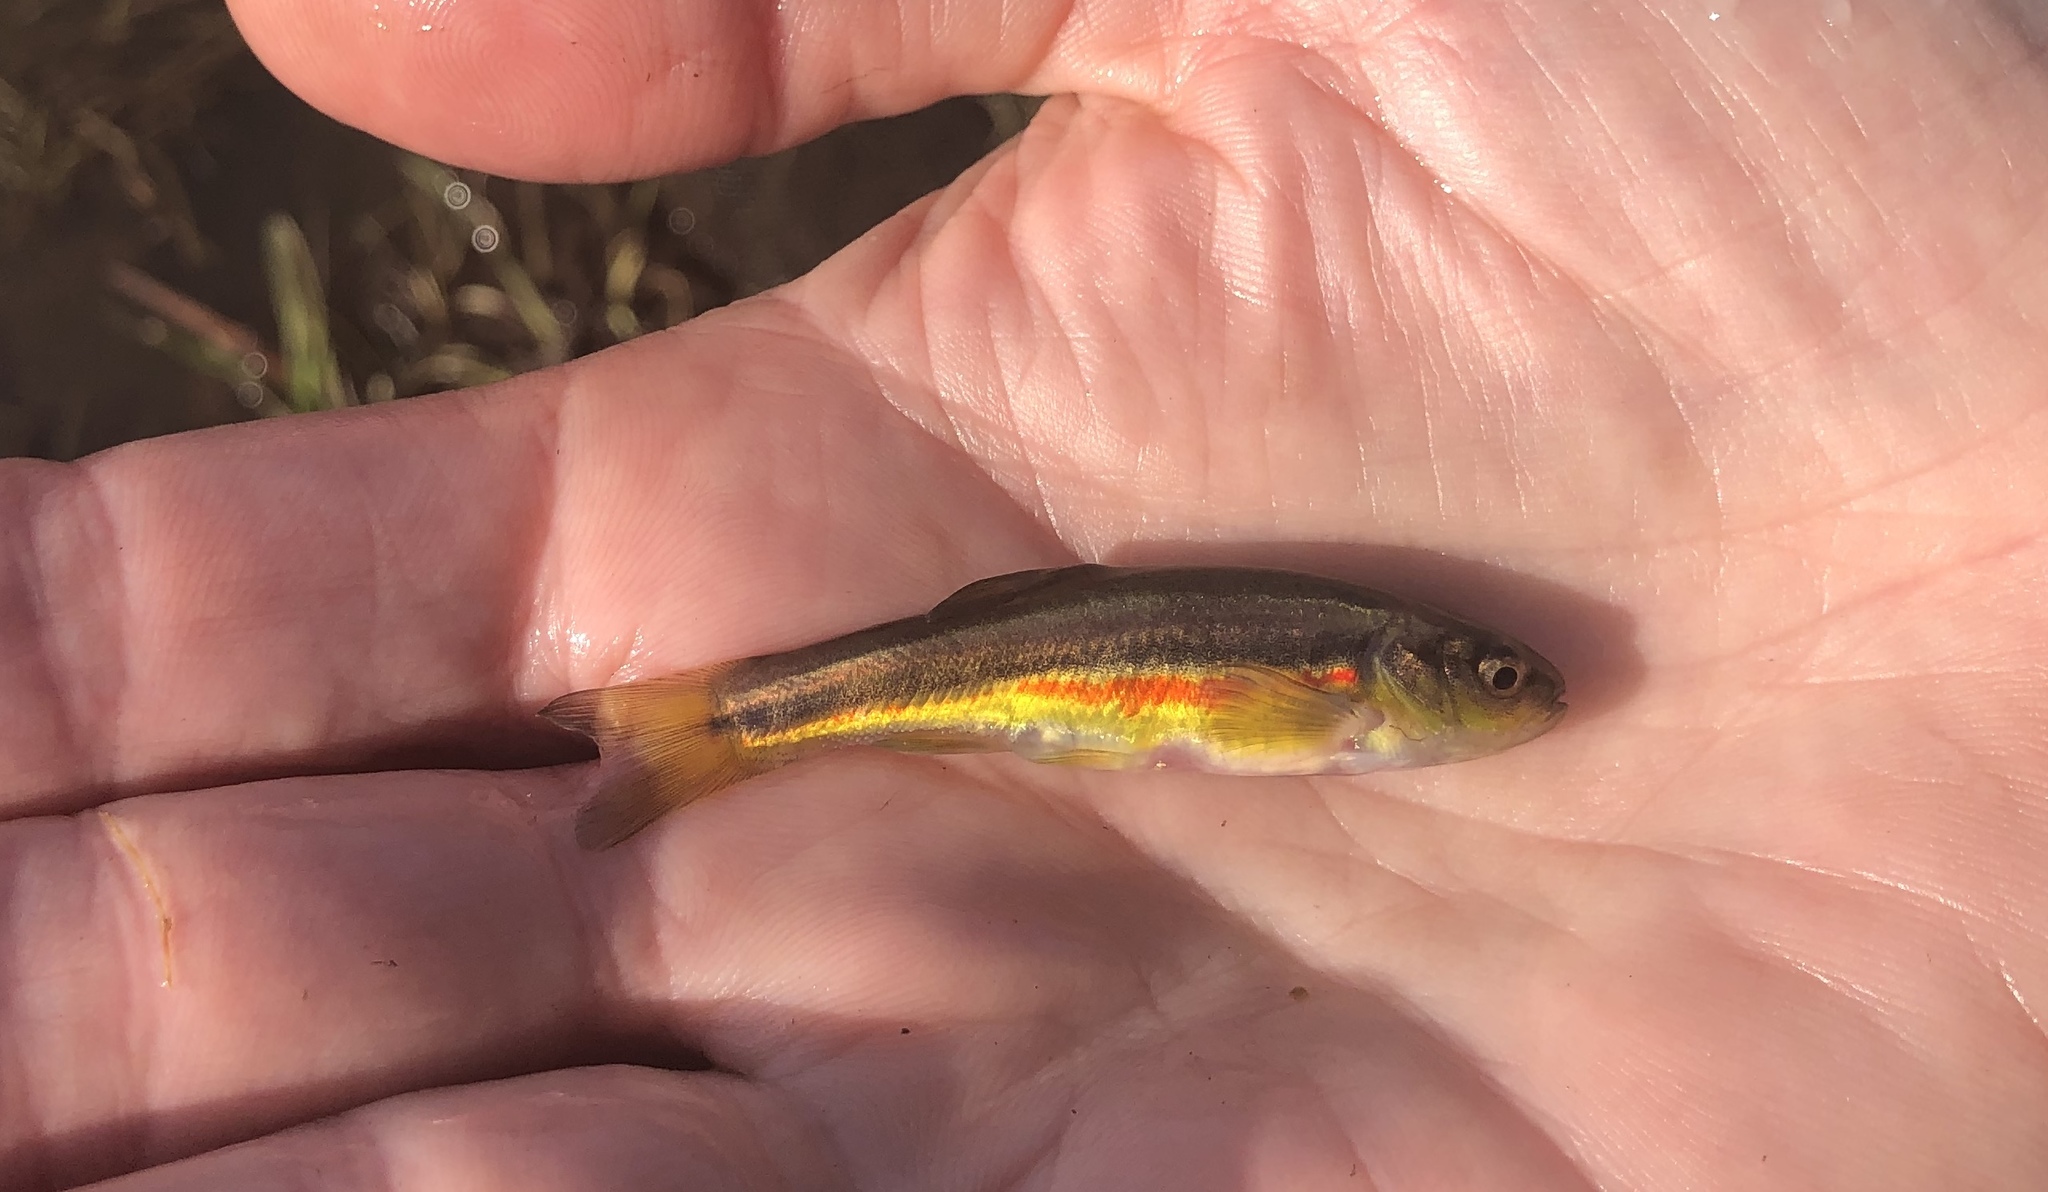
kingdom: Animalia
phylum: Chordata
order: Cypriniformes
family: Cyprinidae
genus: Chrosomus
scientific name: Chrosomus neogaeus
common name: Finescale dace
